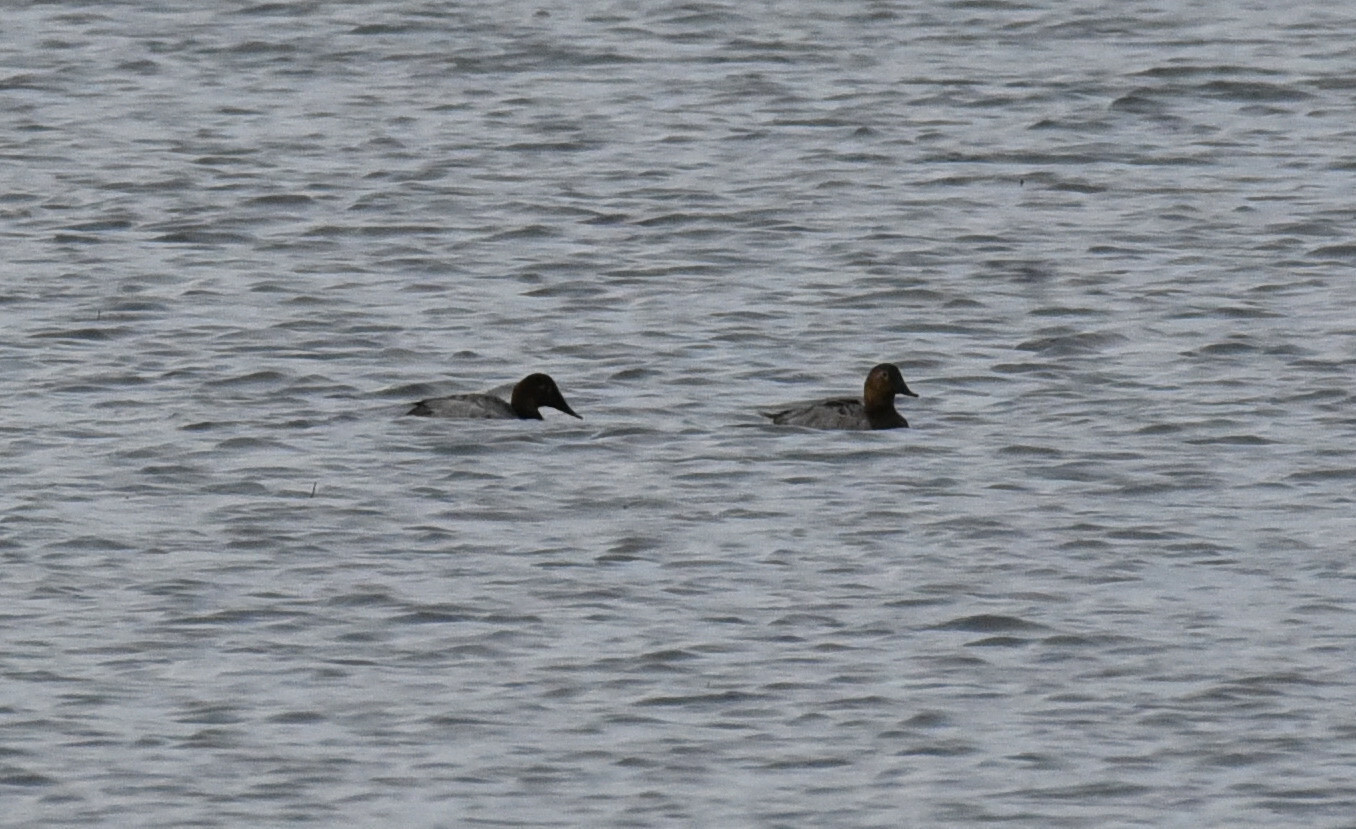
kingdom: Animalia
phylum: Chordata
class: Aves
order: Anseriformes
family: Anatidae
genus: Aythya
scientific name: Aythya valisineria
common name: Canvasback
